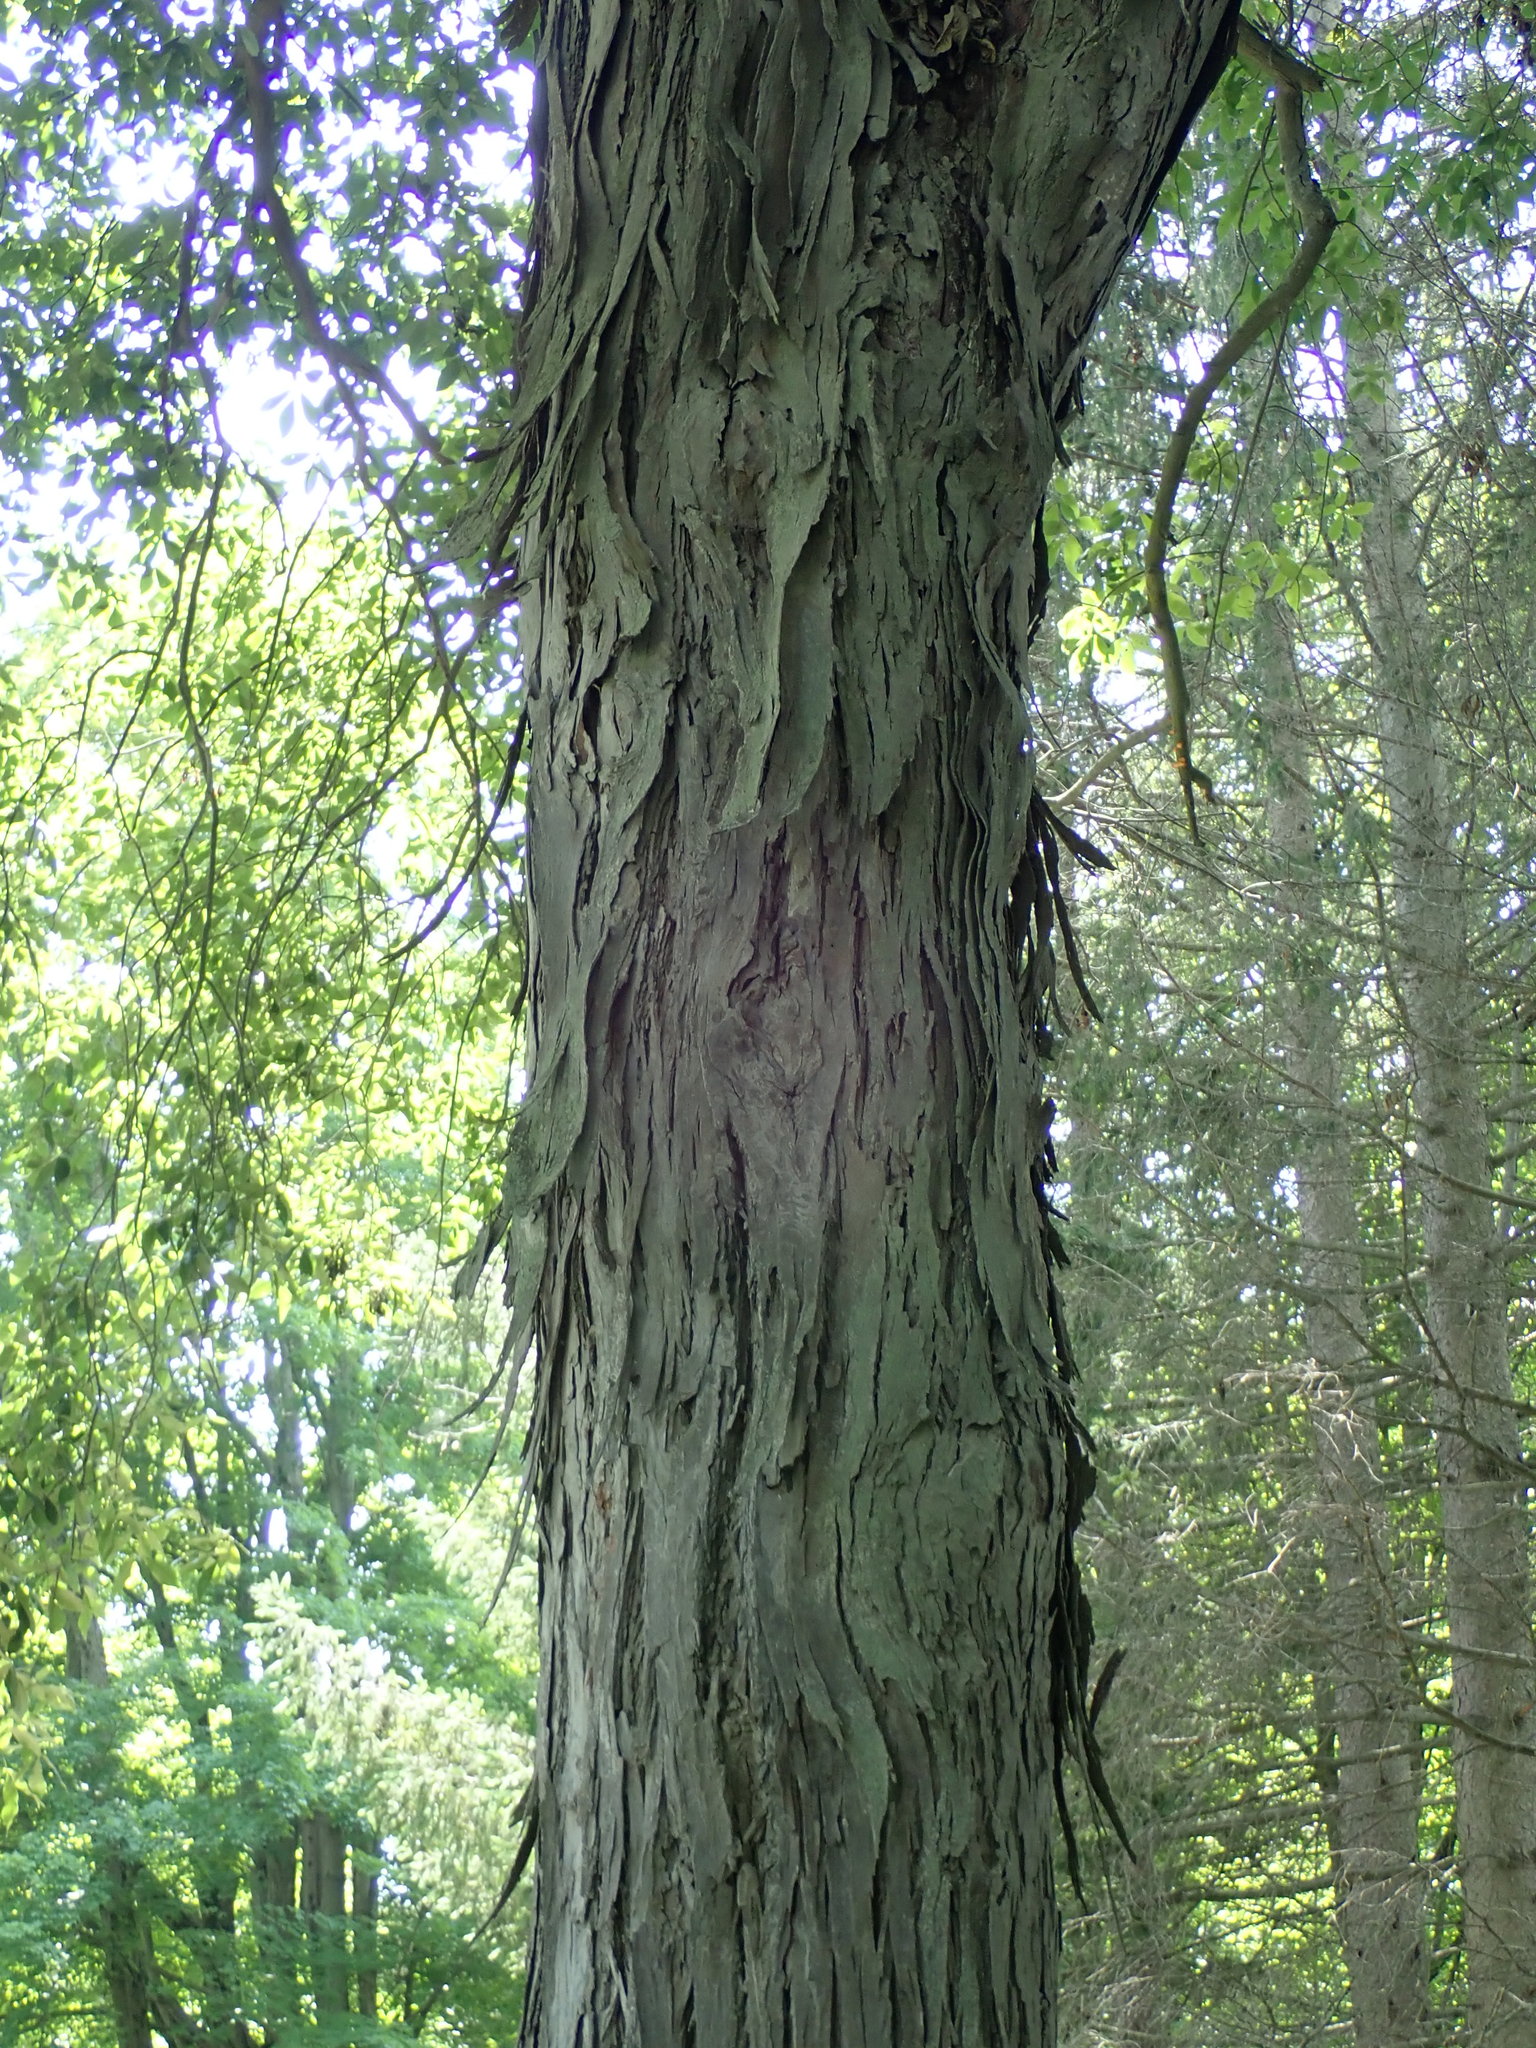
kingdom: Plantae
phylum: Tracheophyta
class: Magnoliopsida
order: Fagales
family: Juglandaceae
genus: Carya
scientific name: Carya ovata
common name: Shagbark hickory
